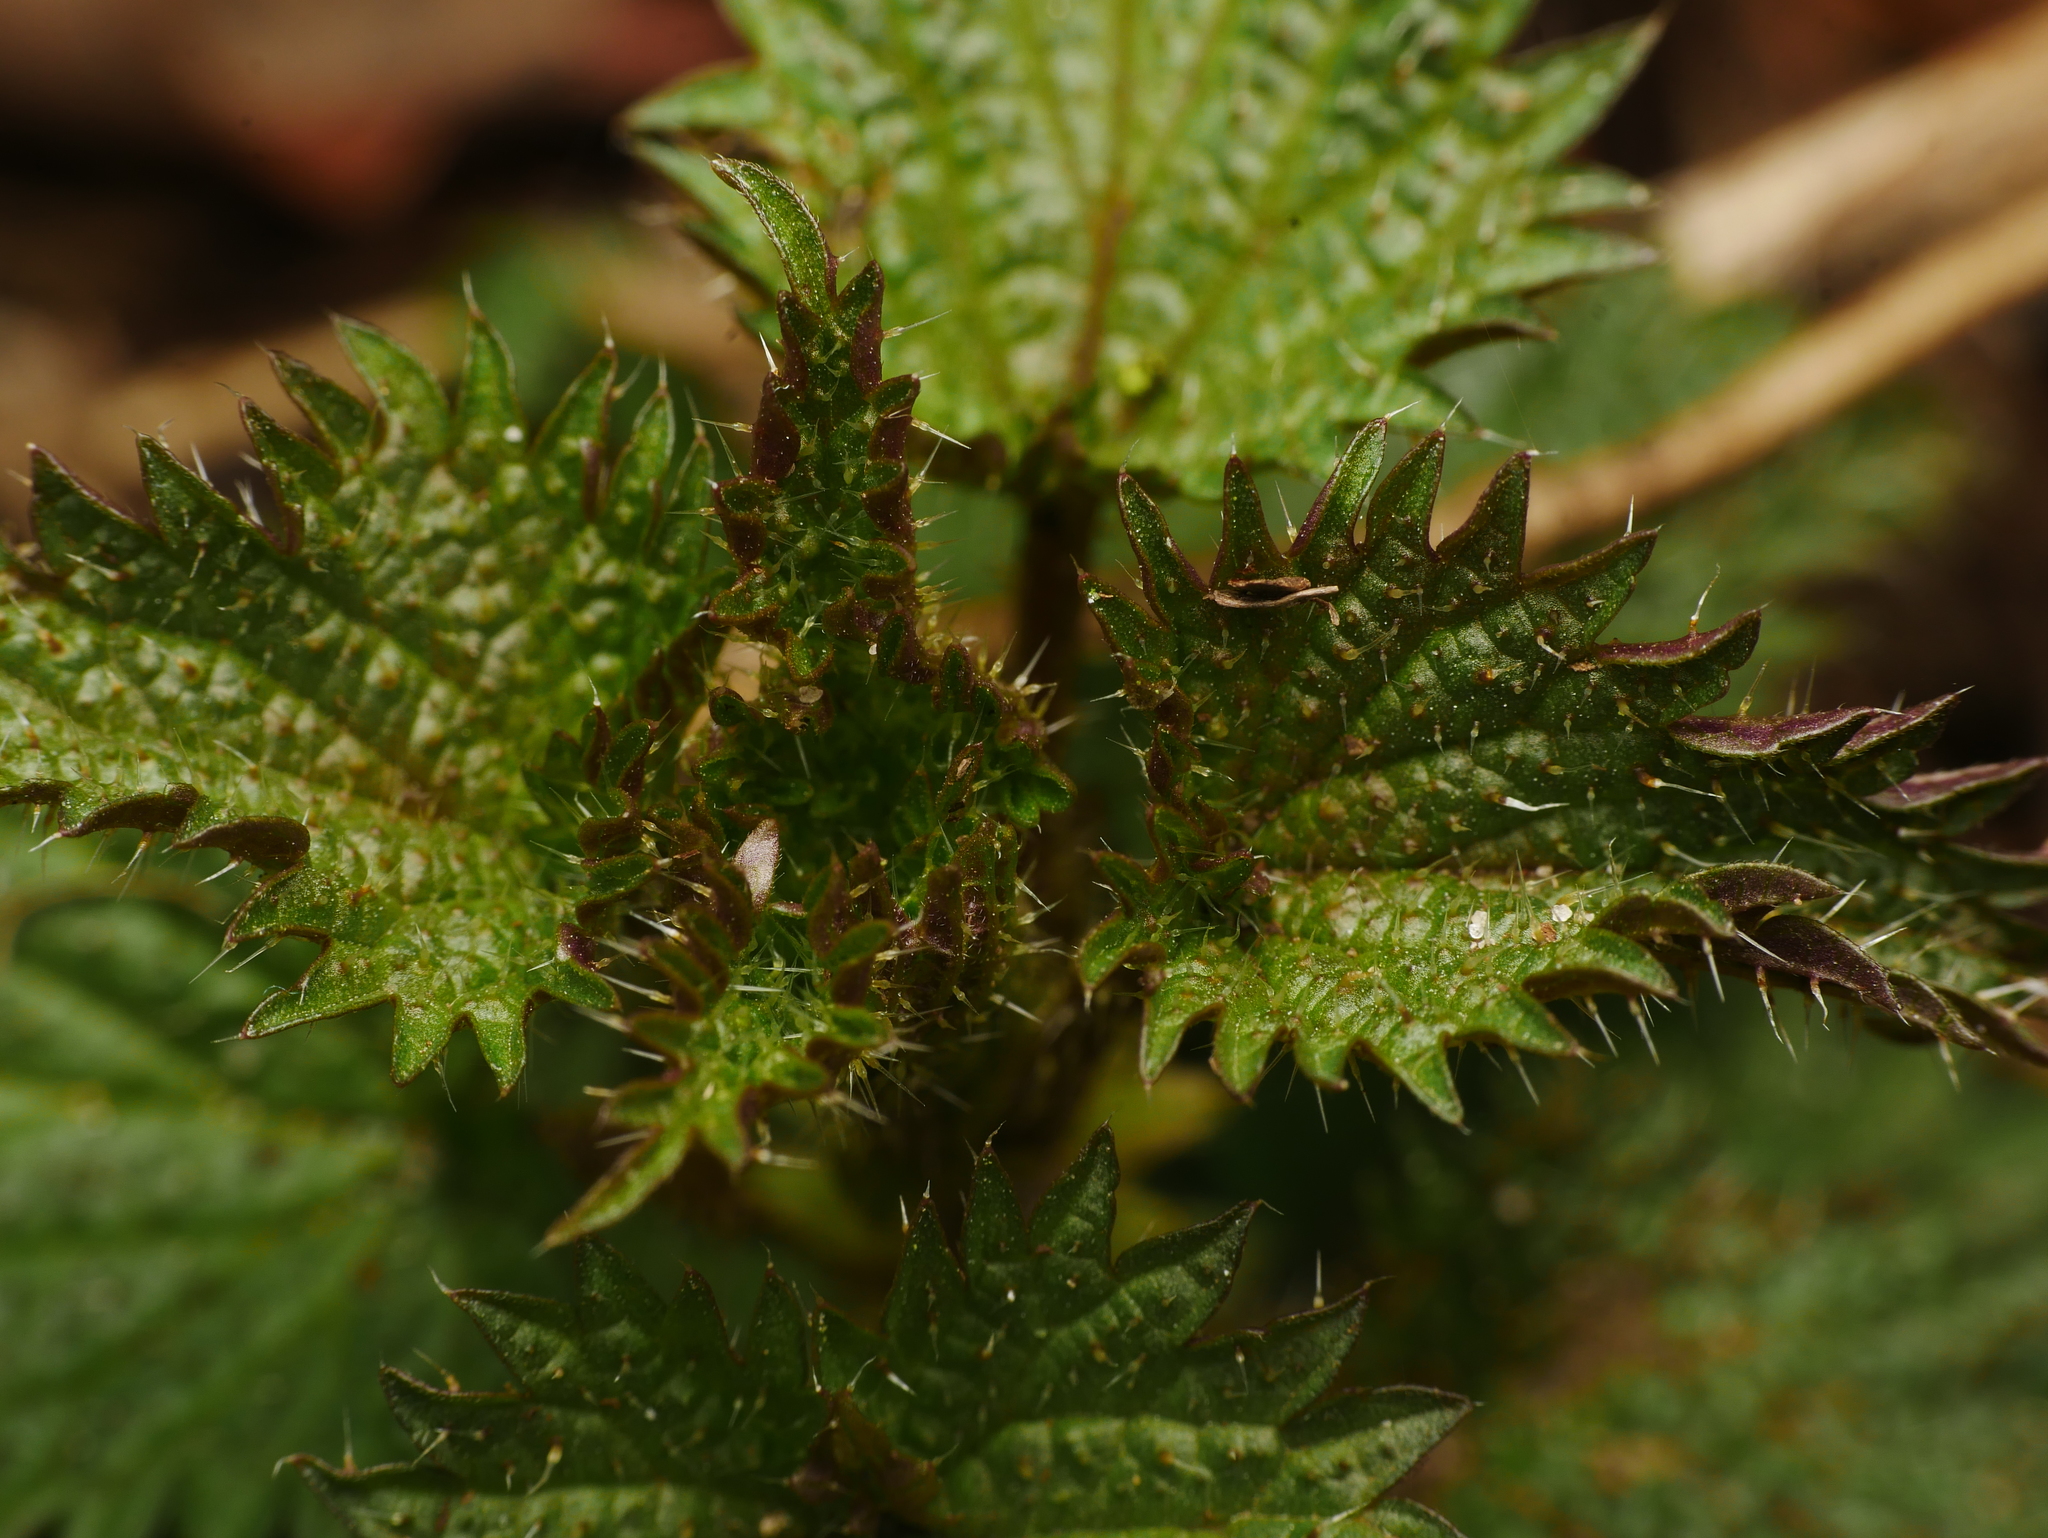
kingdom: Plantae
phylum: Tracheophyta
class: Magnoliopsida
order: Rosales
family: Urticaceae
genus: Urtica
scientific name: Urtica dioica
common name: Common nettle
